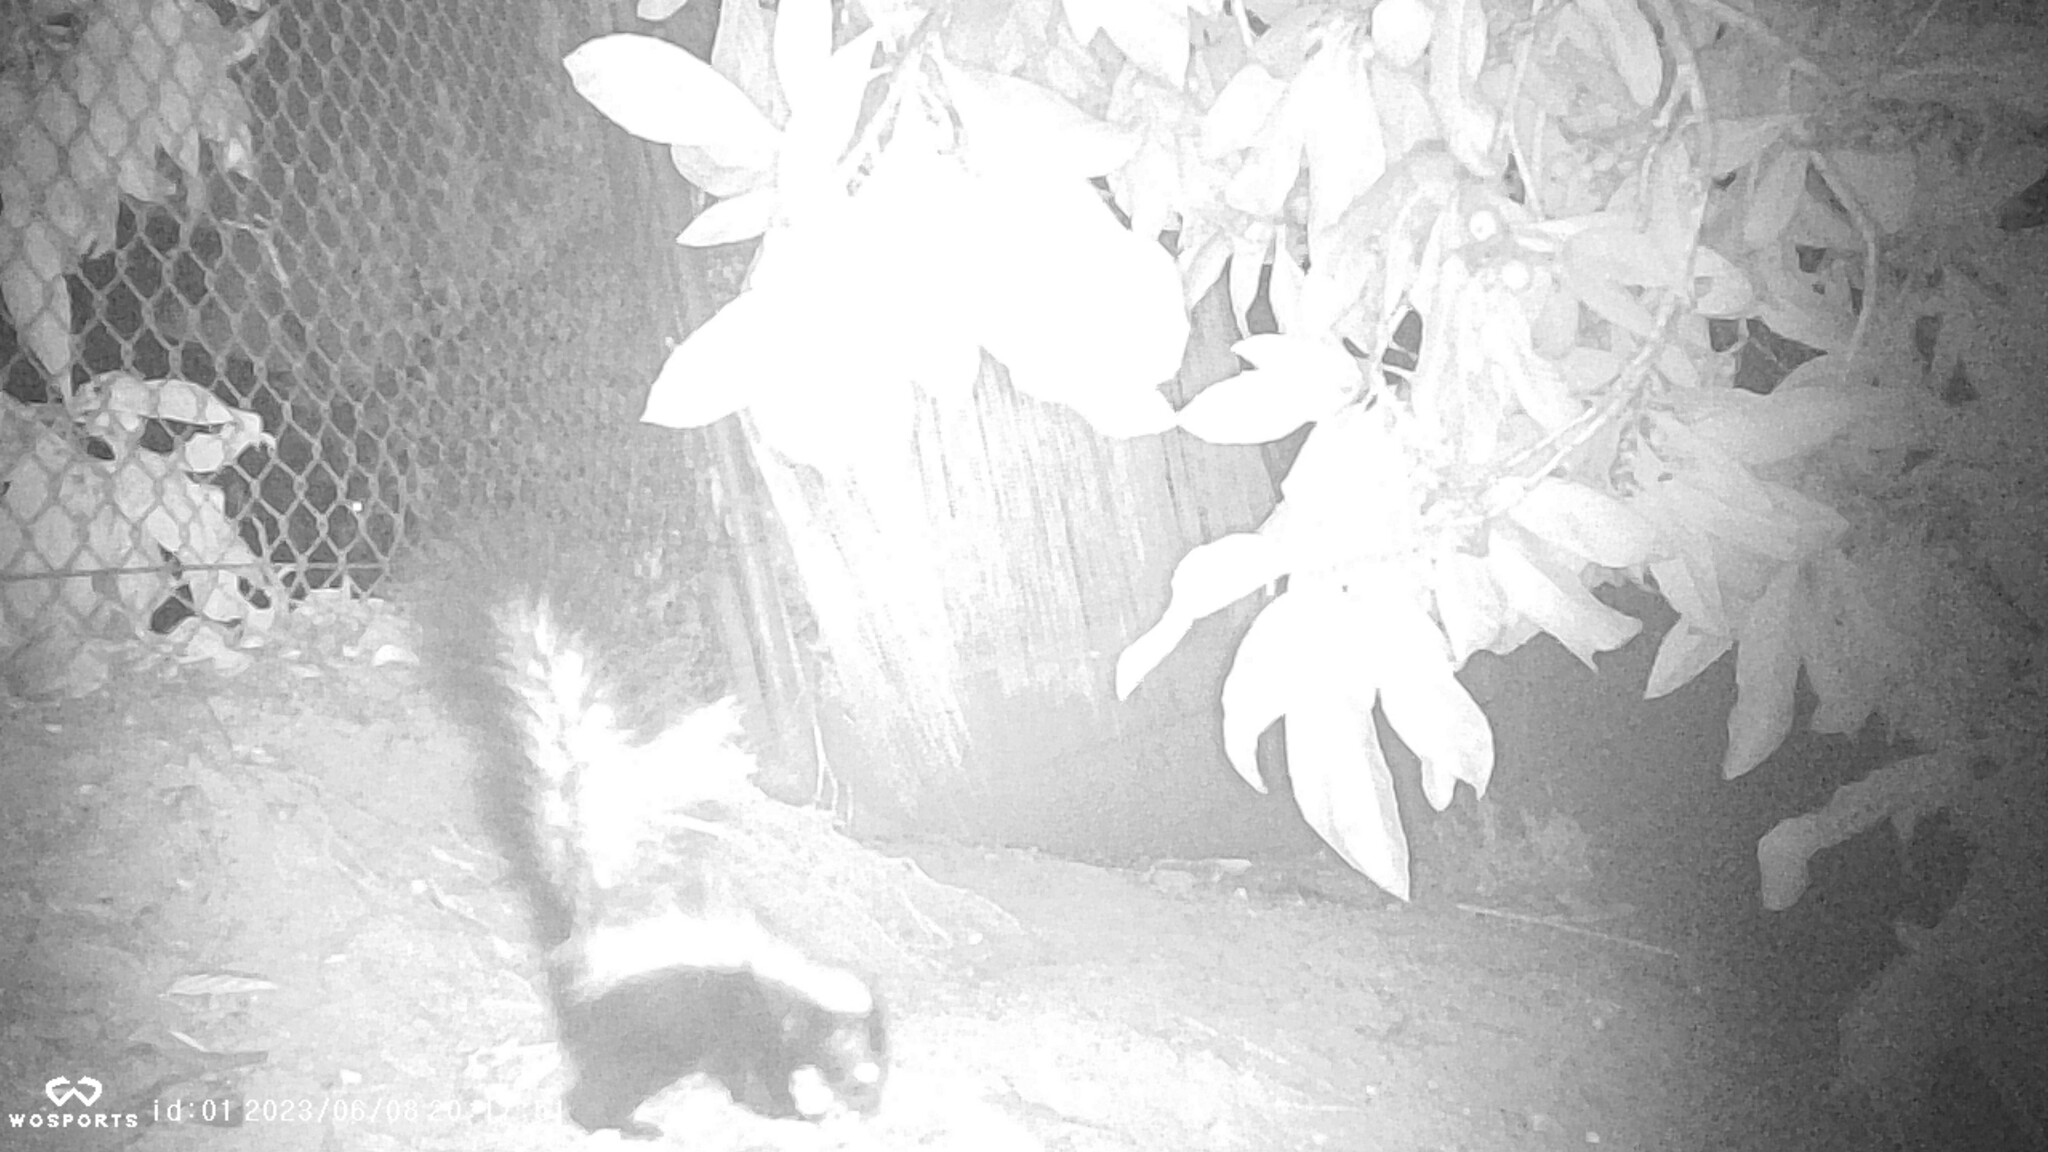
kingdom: Animalia
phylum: Chordata
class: Mammalia
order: Carnivora
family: Mephitidae
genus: Mephitis
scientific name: Mephitis mephitis
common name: Striped skunk
